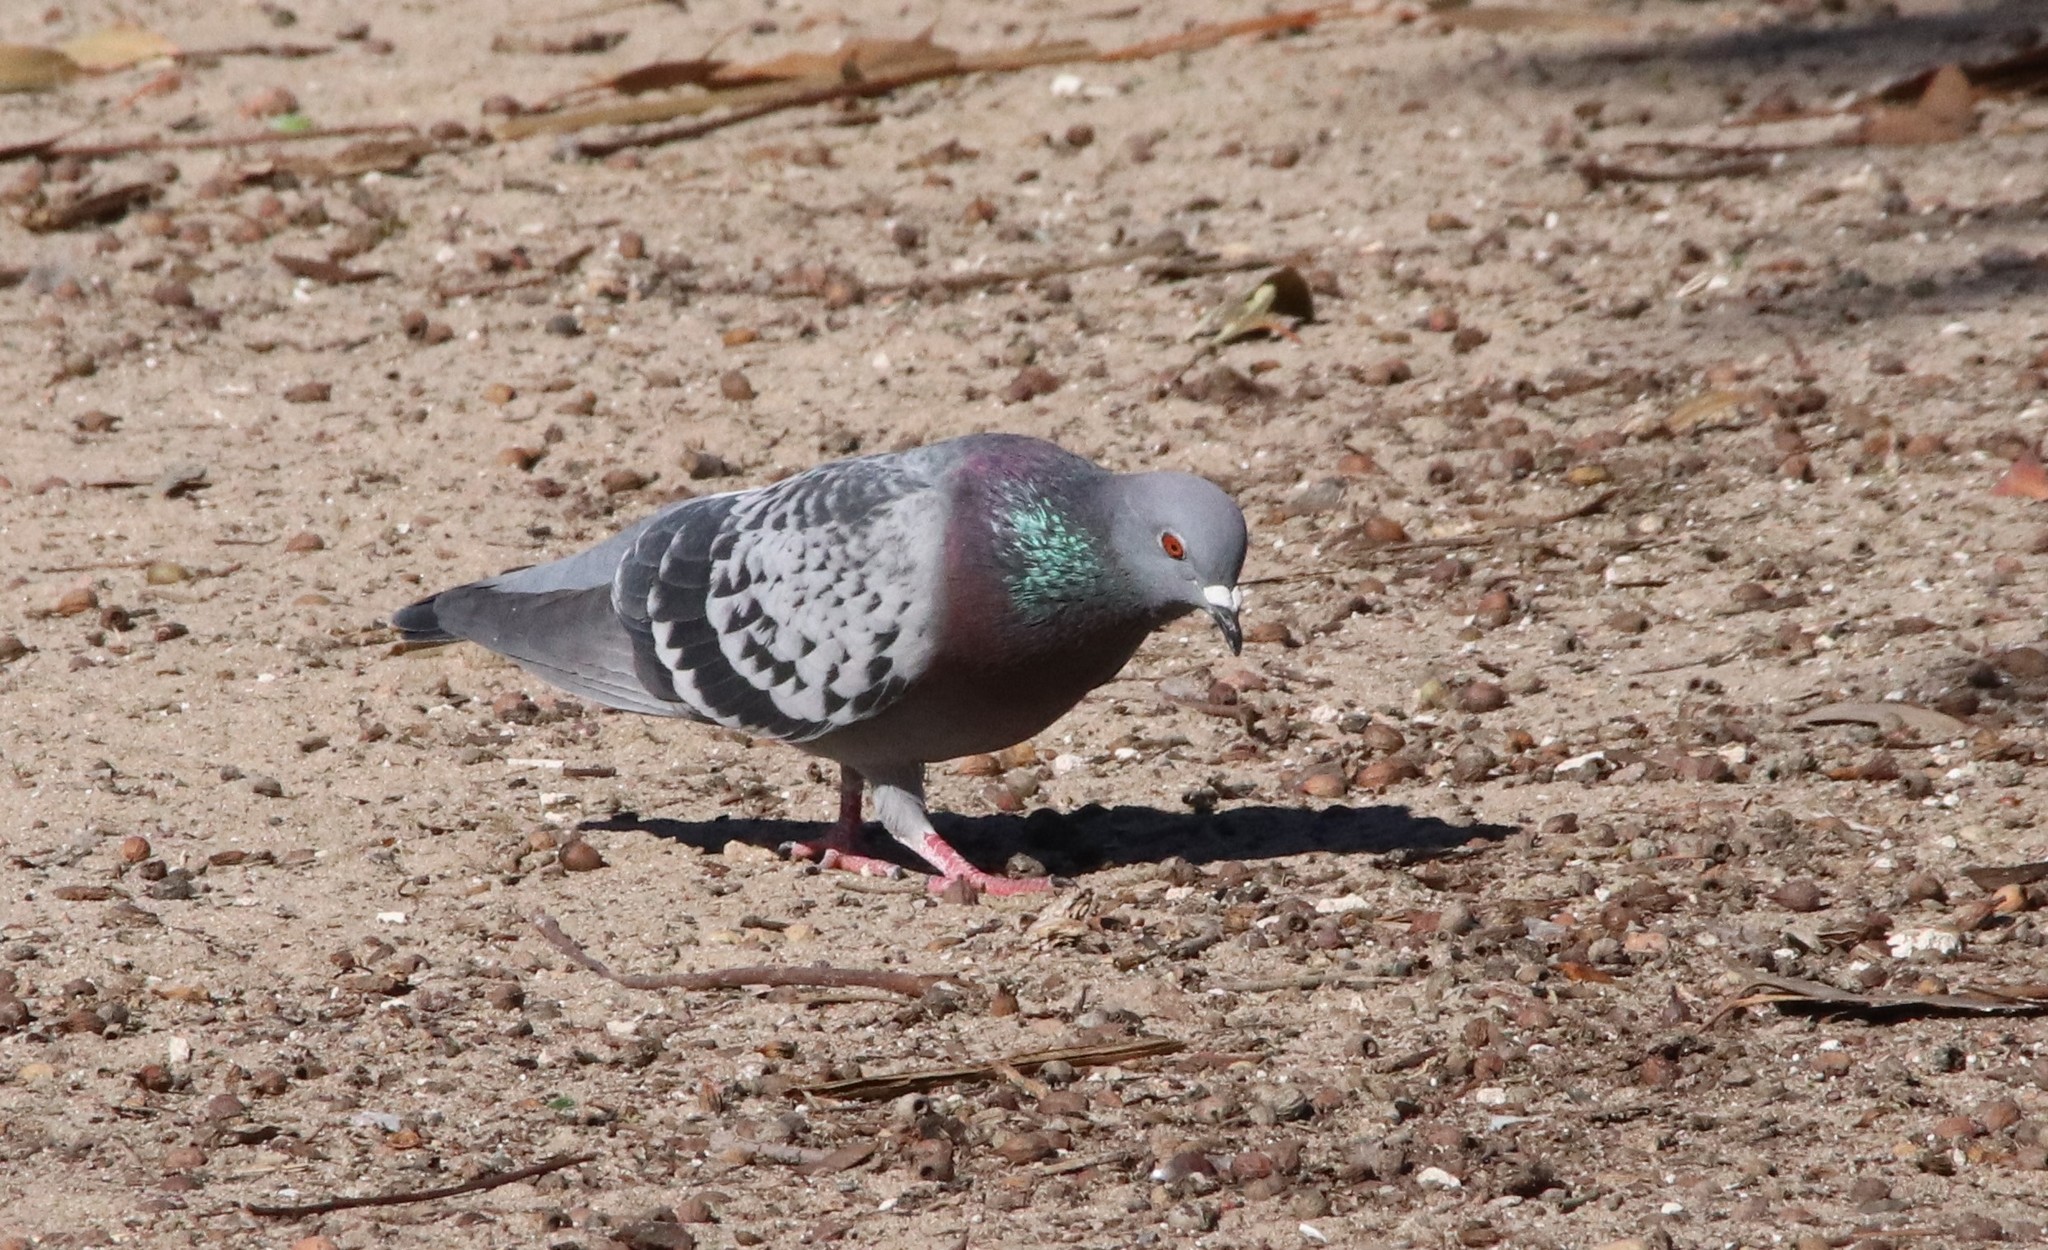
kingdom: Animalia
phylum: Chordata
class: Aves
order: Columbiformes
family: Columbidae
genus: Columba
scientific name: Columba livia
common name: Rock pigeon
